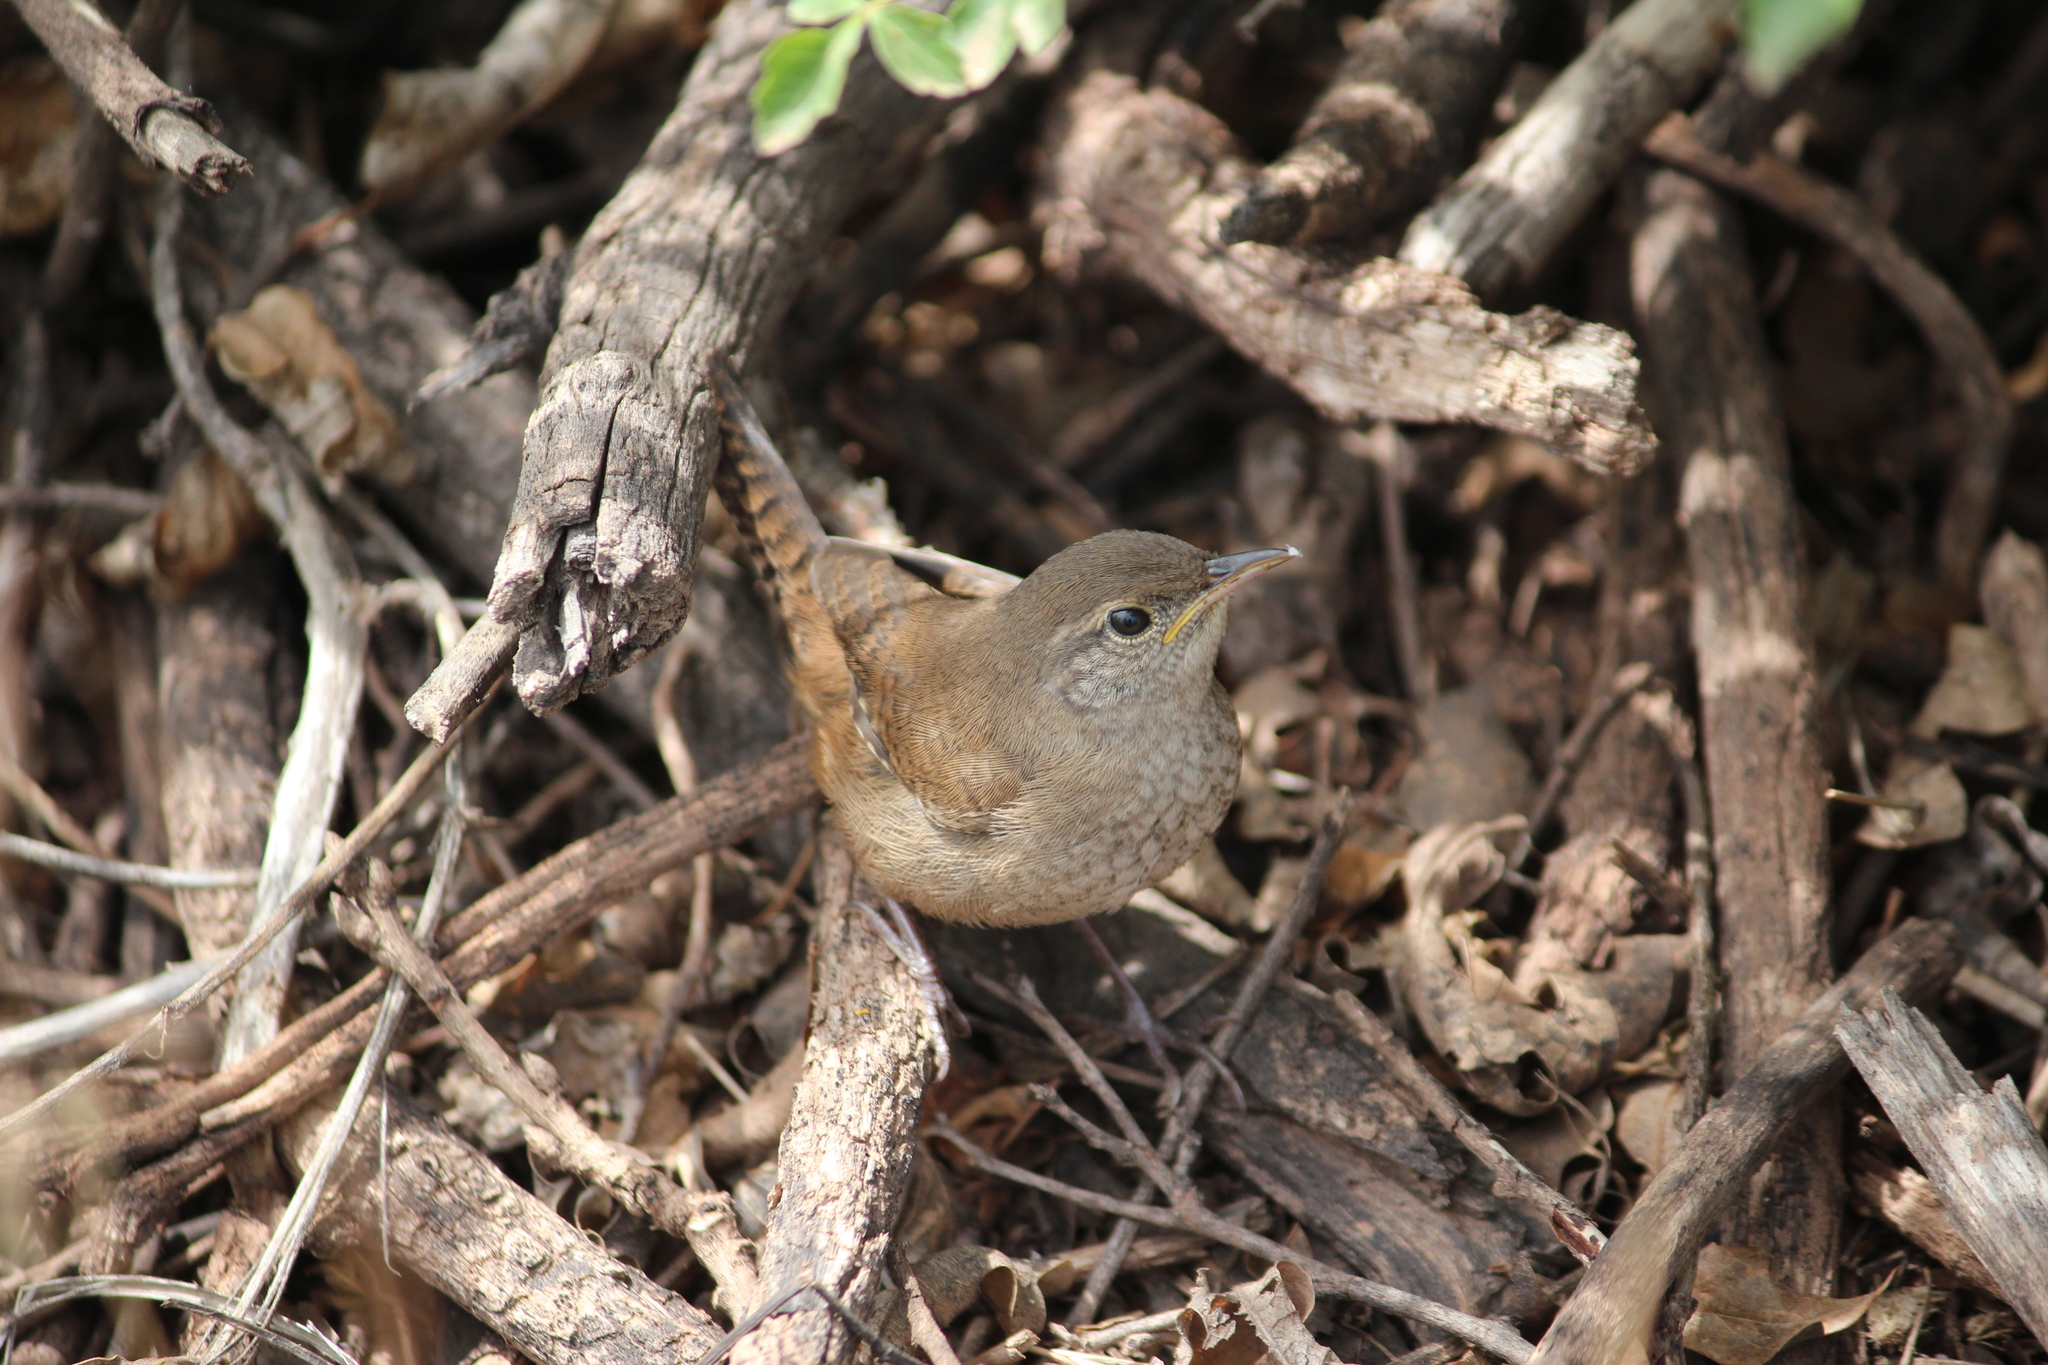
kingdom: Animalia
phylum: Chordata
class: Aves
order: Passeriformes
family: Troglodytidae
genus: Troglodytes
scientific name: Troglodytes aedon
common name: House wren
